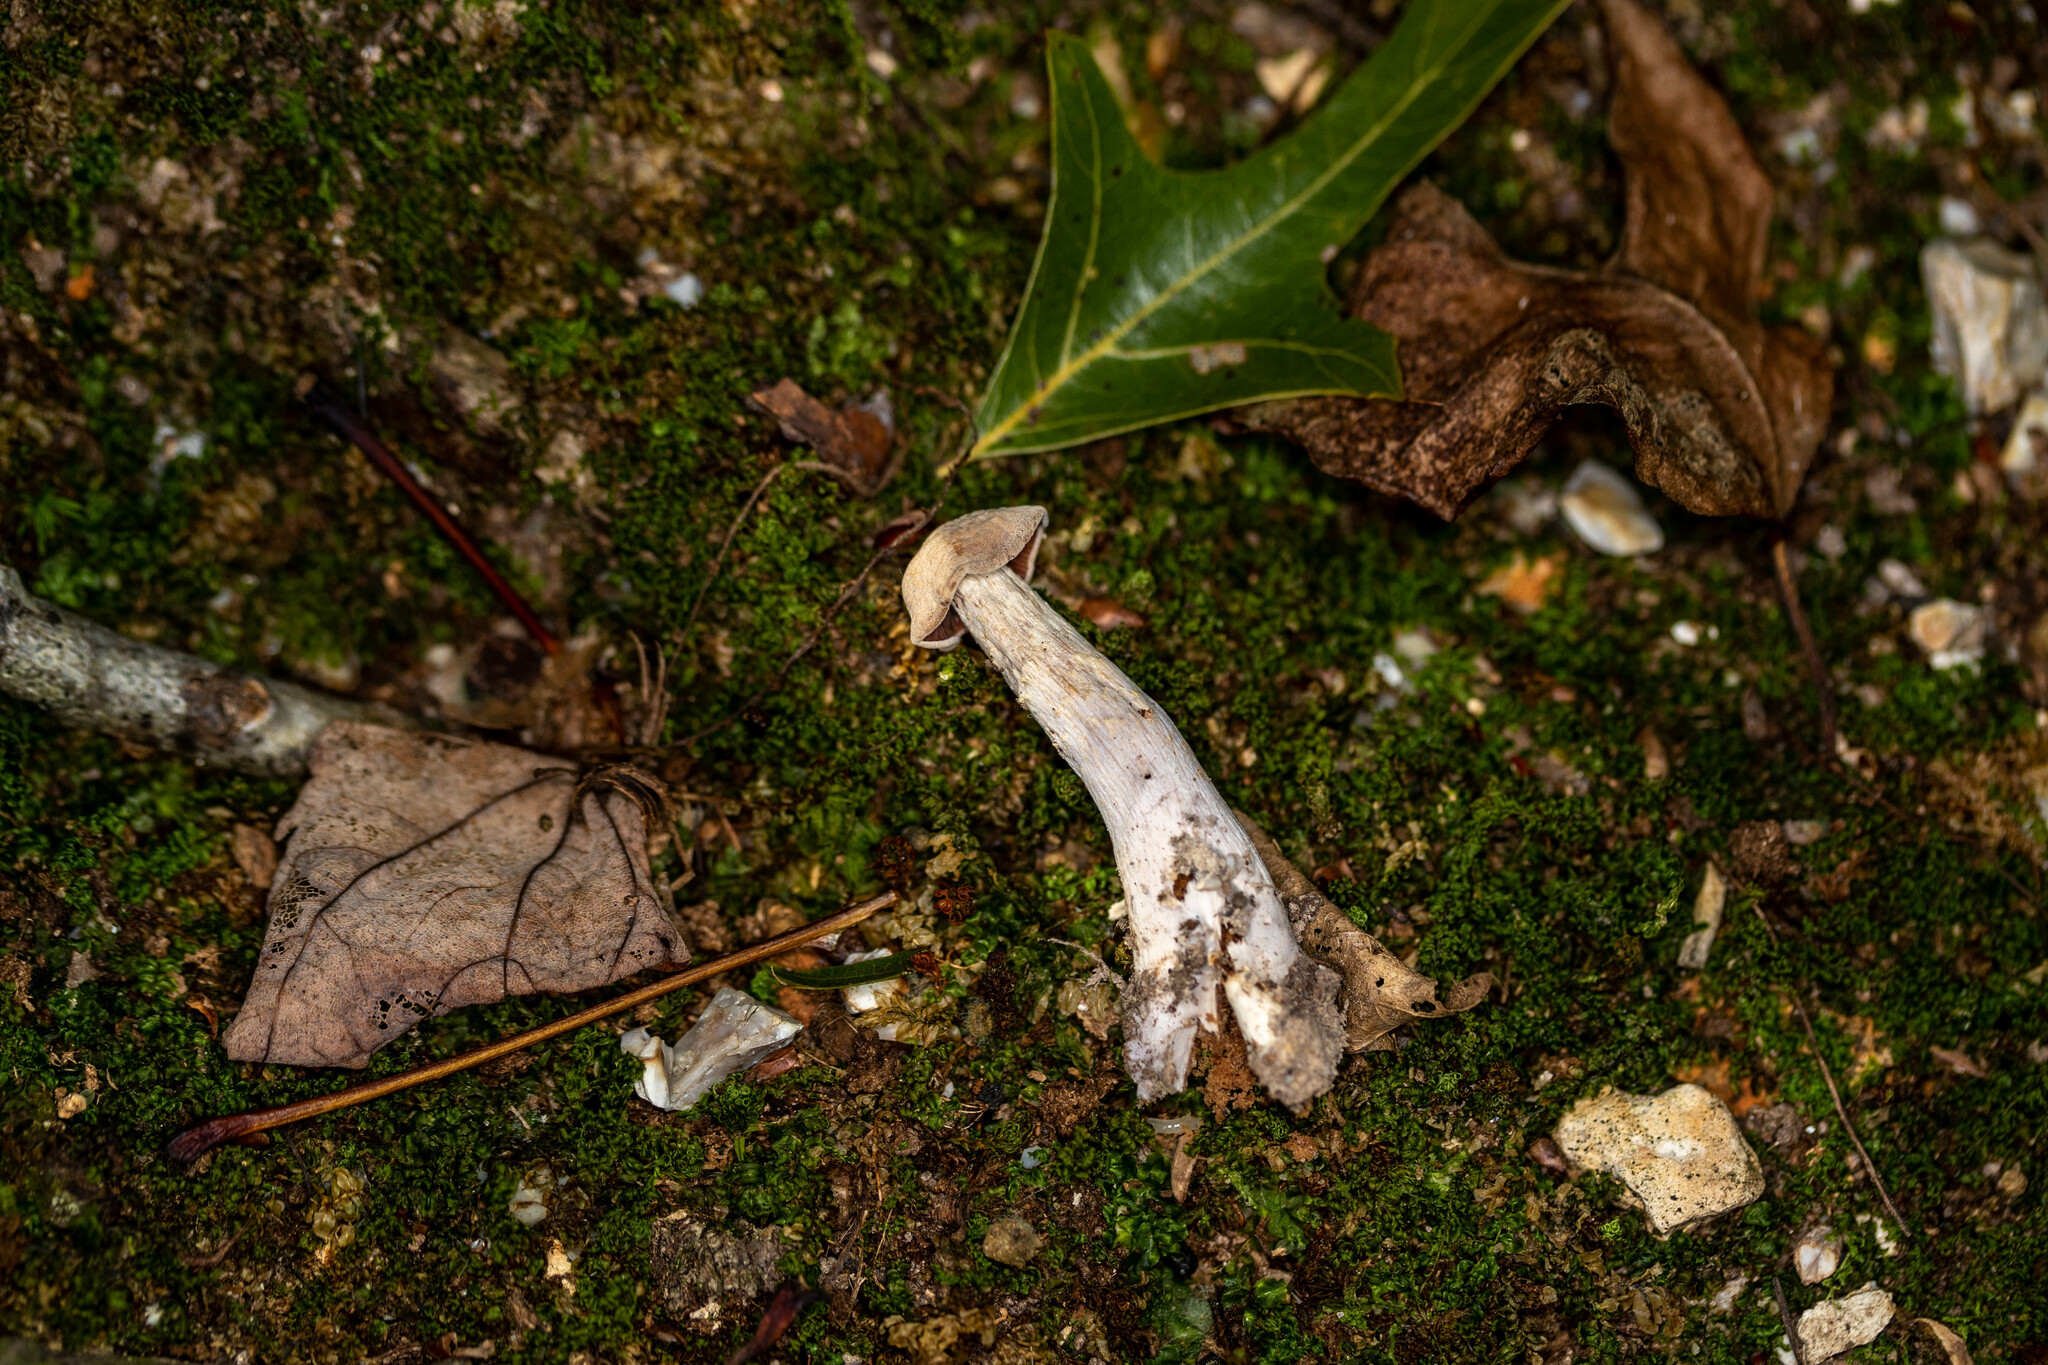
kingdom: Fungi
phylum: Basidiomycota
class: Agaricomycetes
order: Agaricales
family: Hydnangiaceae
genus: Laccaria
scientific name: Laccaria ochropurpurea
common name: Purple laccaria
